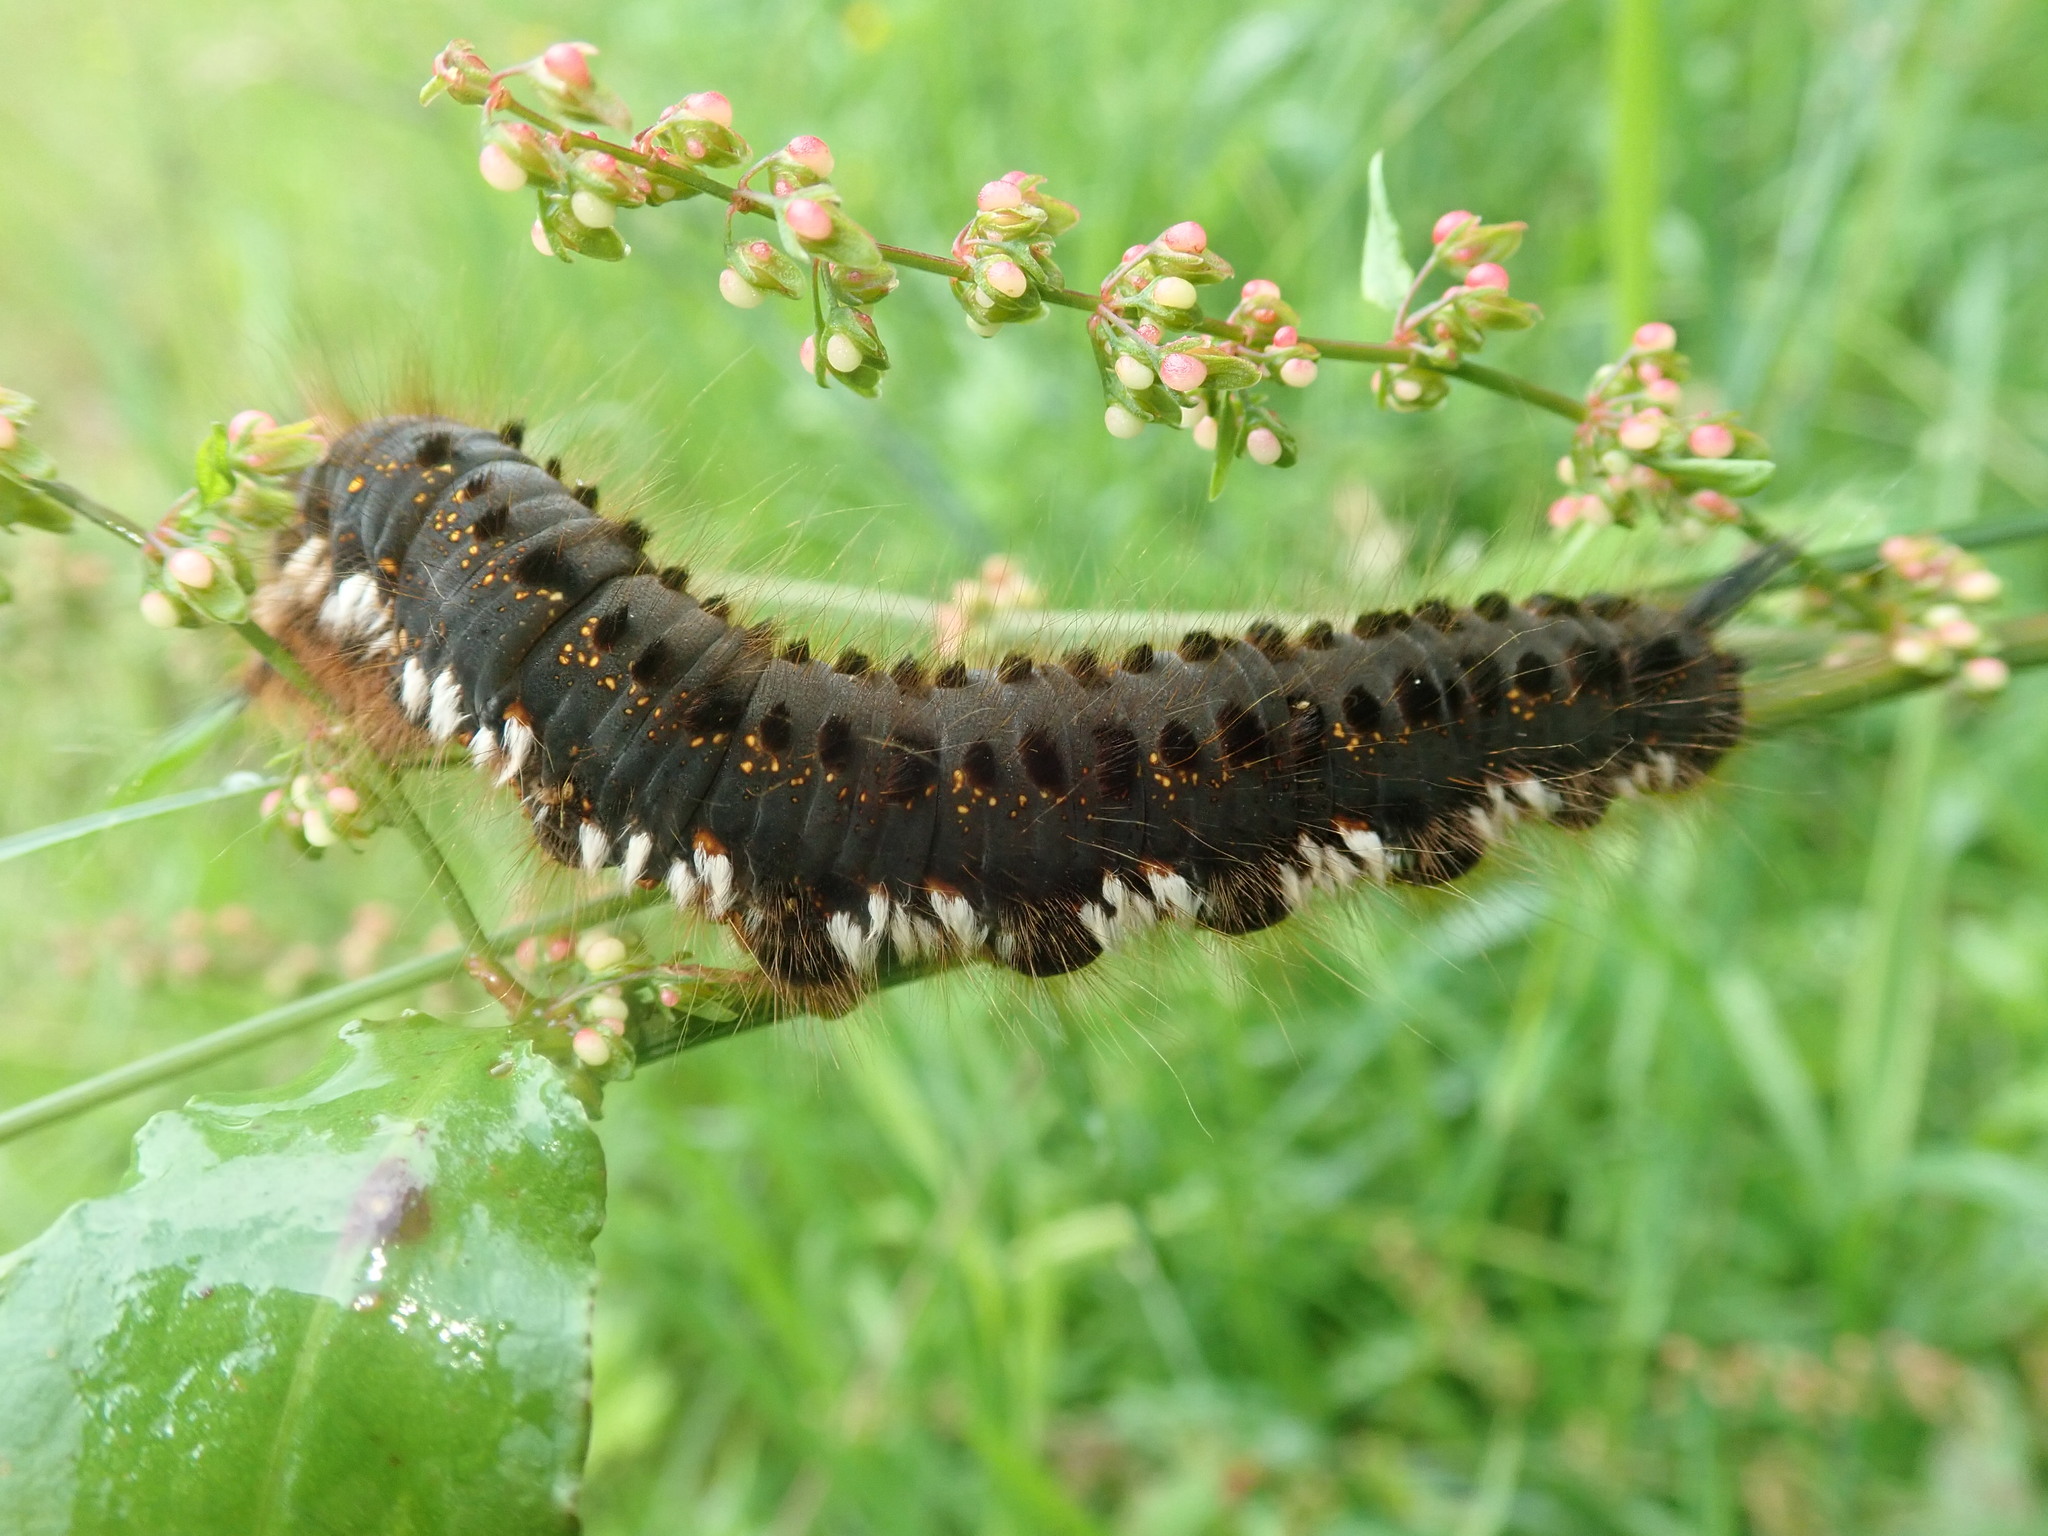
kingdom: Animalia
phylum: Arthropoda
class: Insecta
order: Lepidoptera
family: Lasiocampidae
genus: Euthrix
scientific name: Euthrix potatoria
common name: Drinker
